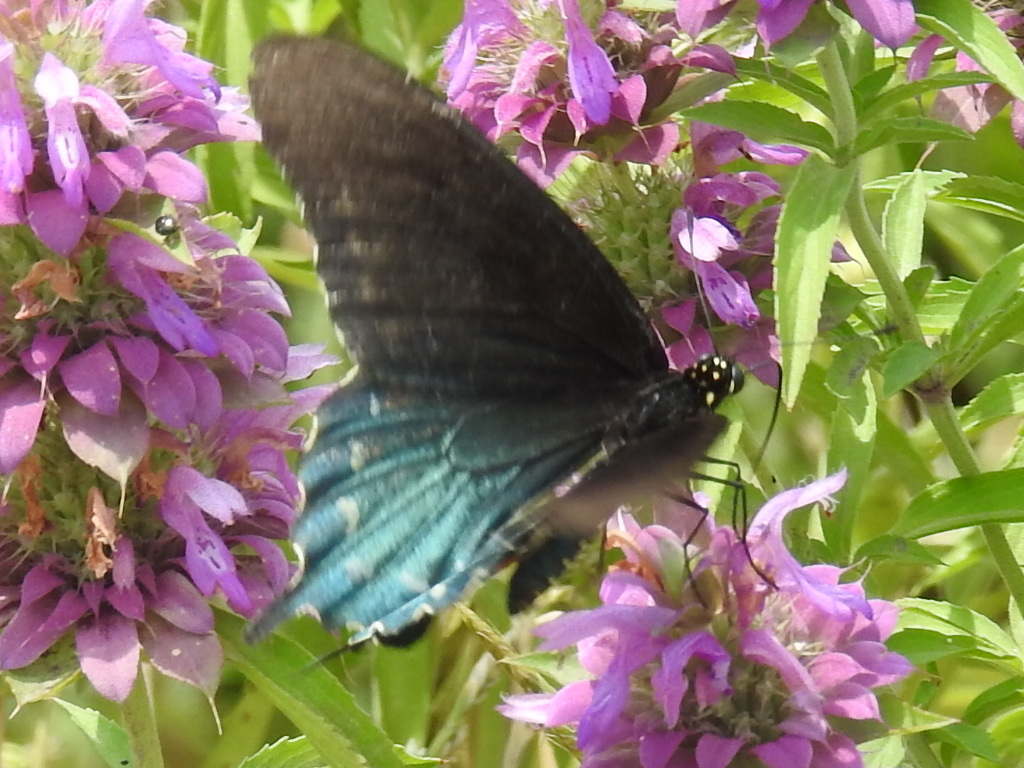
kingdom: Animalia
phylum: Arthropoda
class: Insecta
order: Lepidoptera
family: Papilionidae
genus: Battus
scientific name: Battus philenor
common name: Pipevine swallowtail
